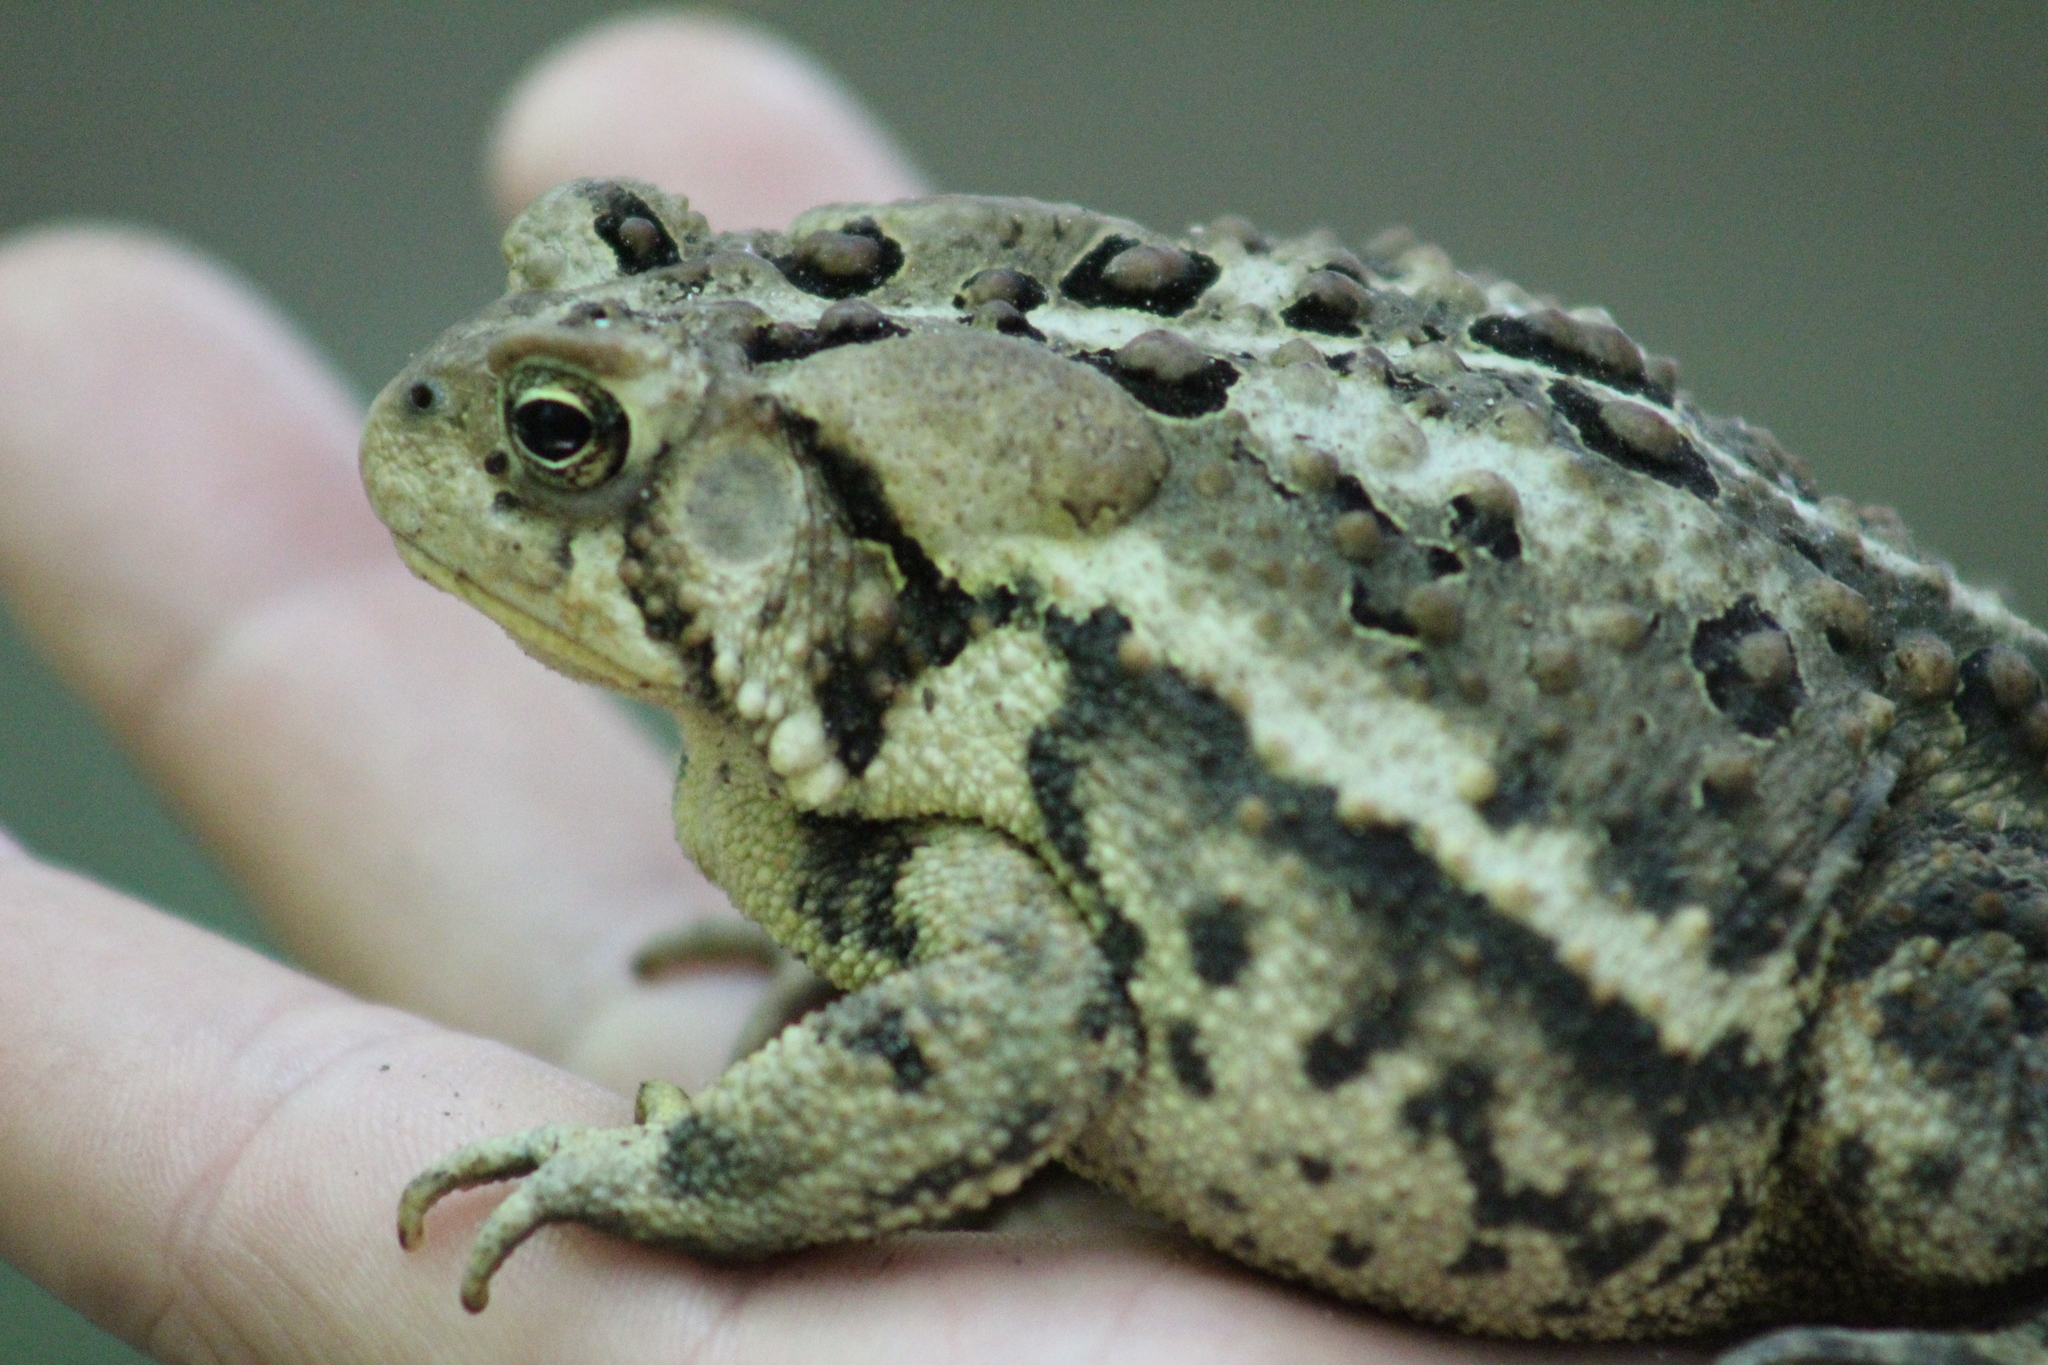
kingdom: Animalia
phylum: Chordata
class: Amphibia
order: Anura
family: Bufonidae
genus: Anaxyrus
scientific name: Anaxyrus americanus
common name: American toad
